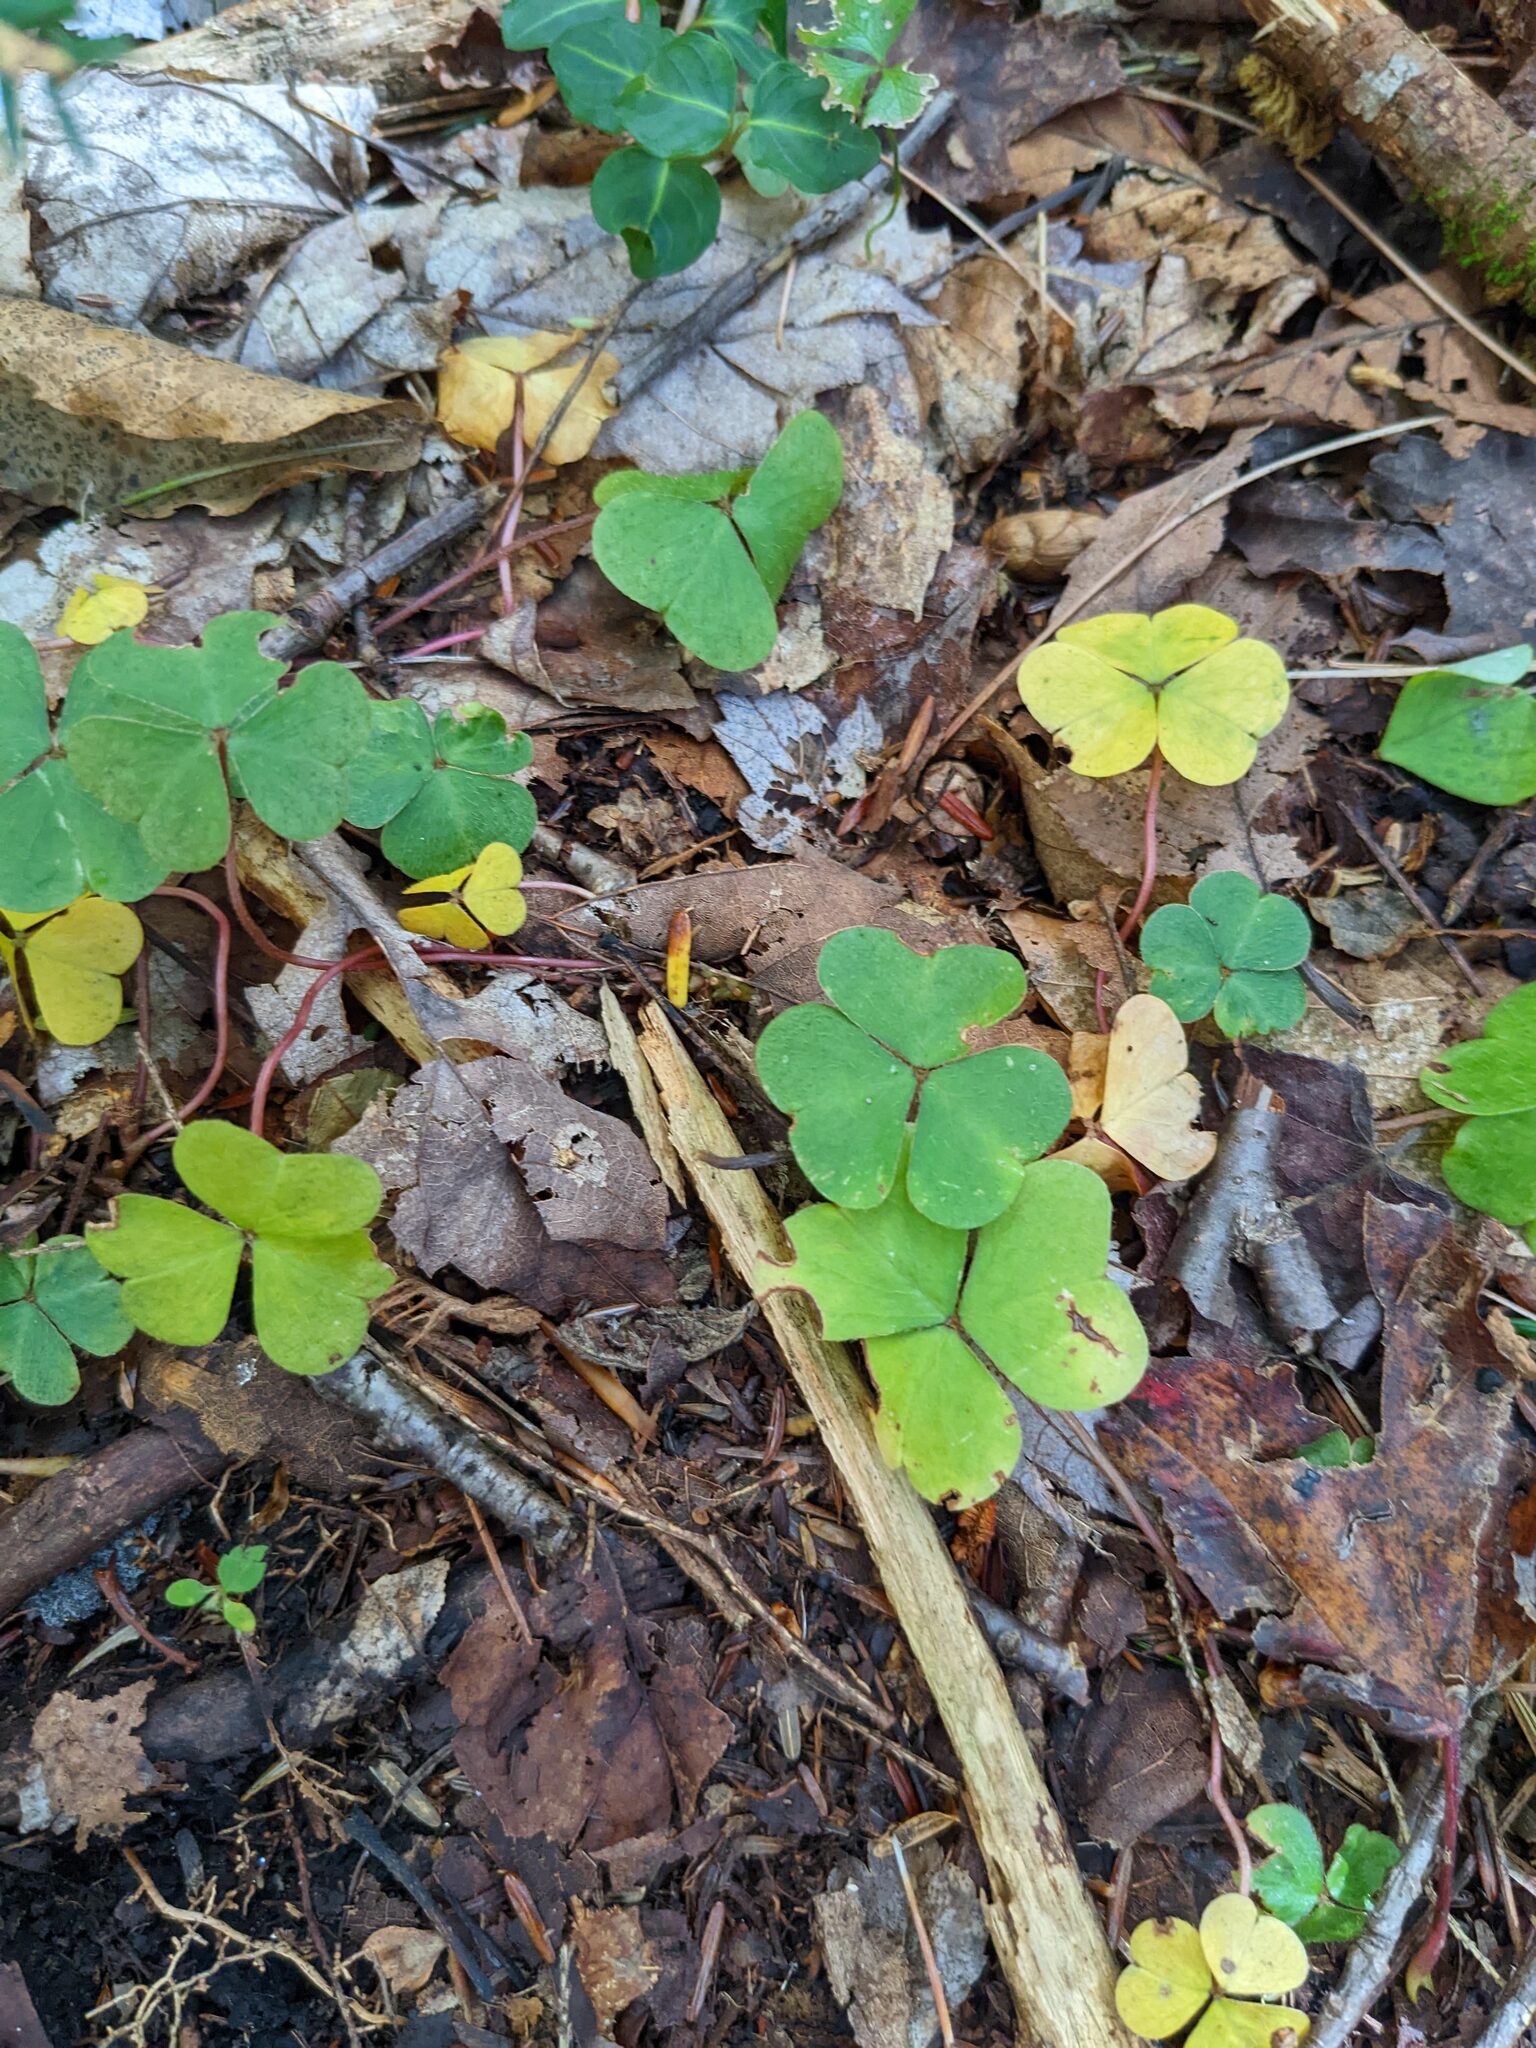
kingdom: Plantae
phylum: Tracheophyta
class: Magnoliopsida
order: Oxalidales
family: Oxalidaceae
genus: Oxalis
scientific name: Oxalis montana
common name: American wood-sorrel
